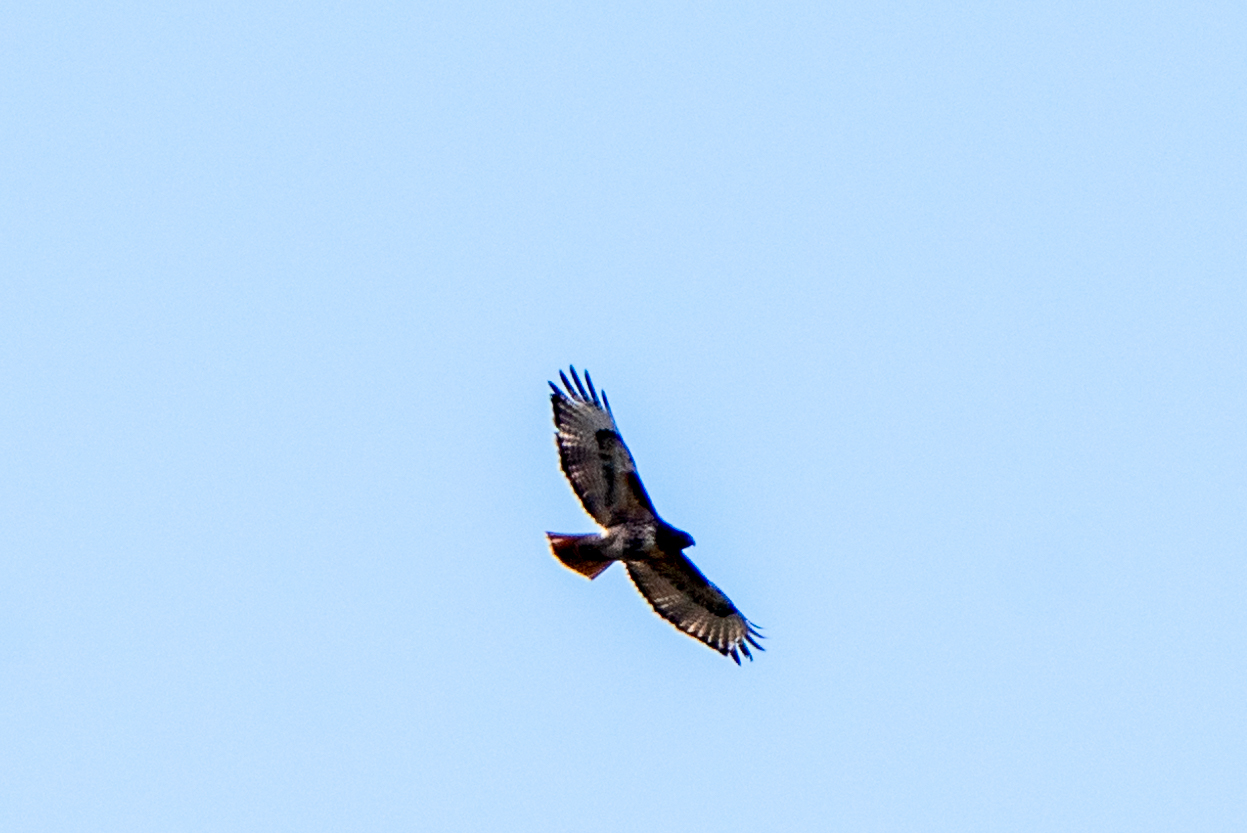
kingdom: Animalia
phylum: Chordata
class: Aves
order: Accipitriformes
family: Accipitridae
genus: Buteo
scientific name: Buteo jamaicensis
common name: Red-tailed hawk
